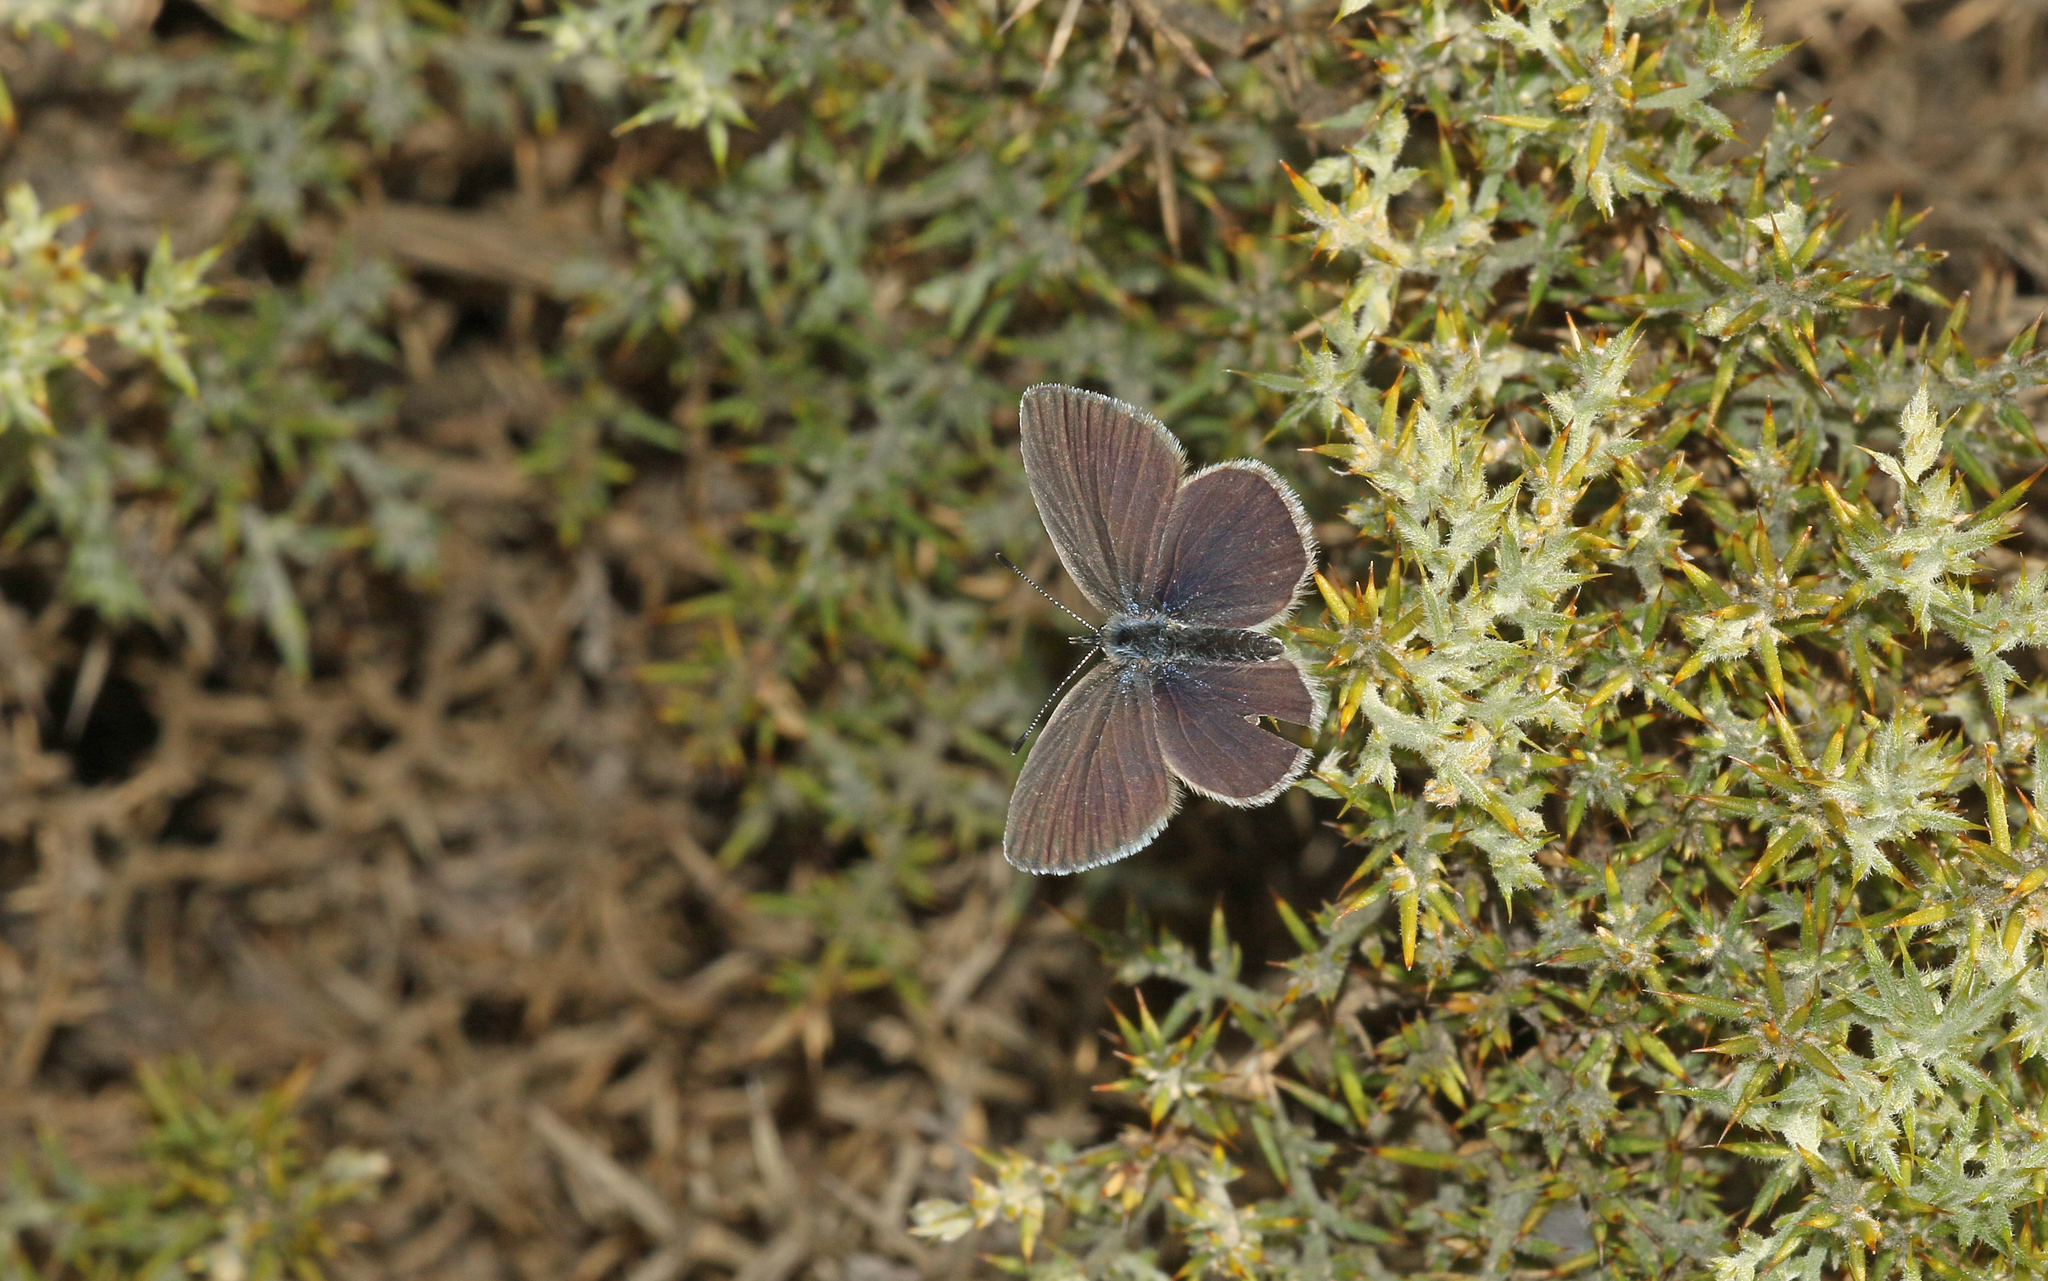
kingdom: Animalia
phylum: Arthropoda
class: Insecta
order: Lepidoptera
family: Lycaenidae
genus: Cupido
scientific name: Cupido lorquinii
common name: Lorquin’s blue
